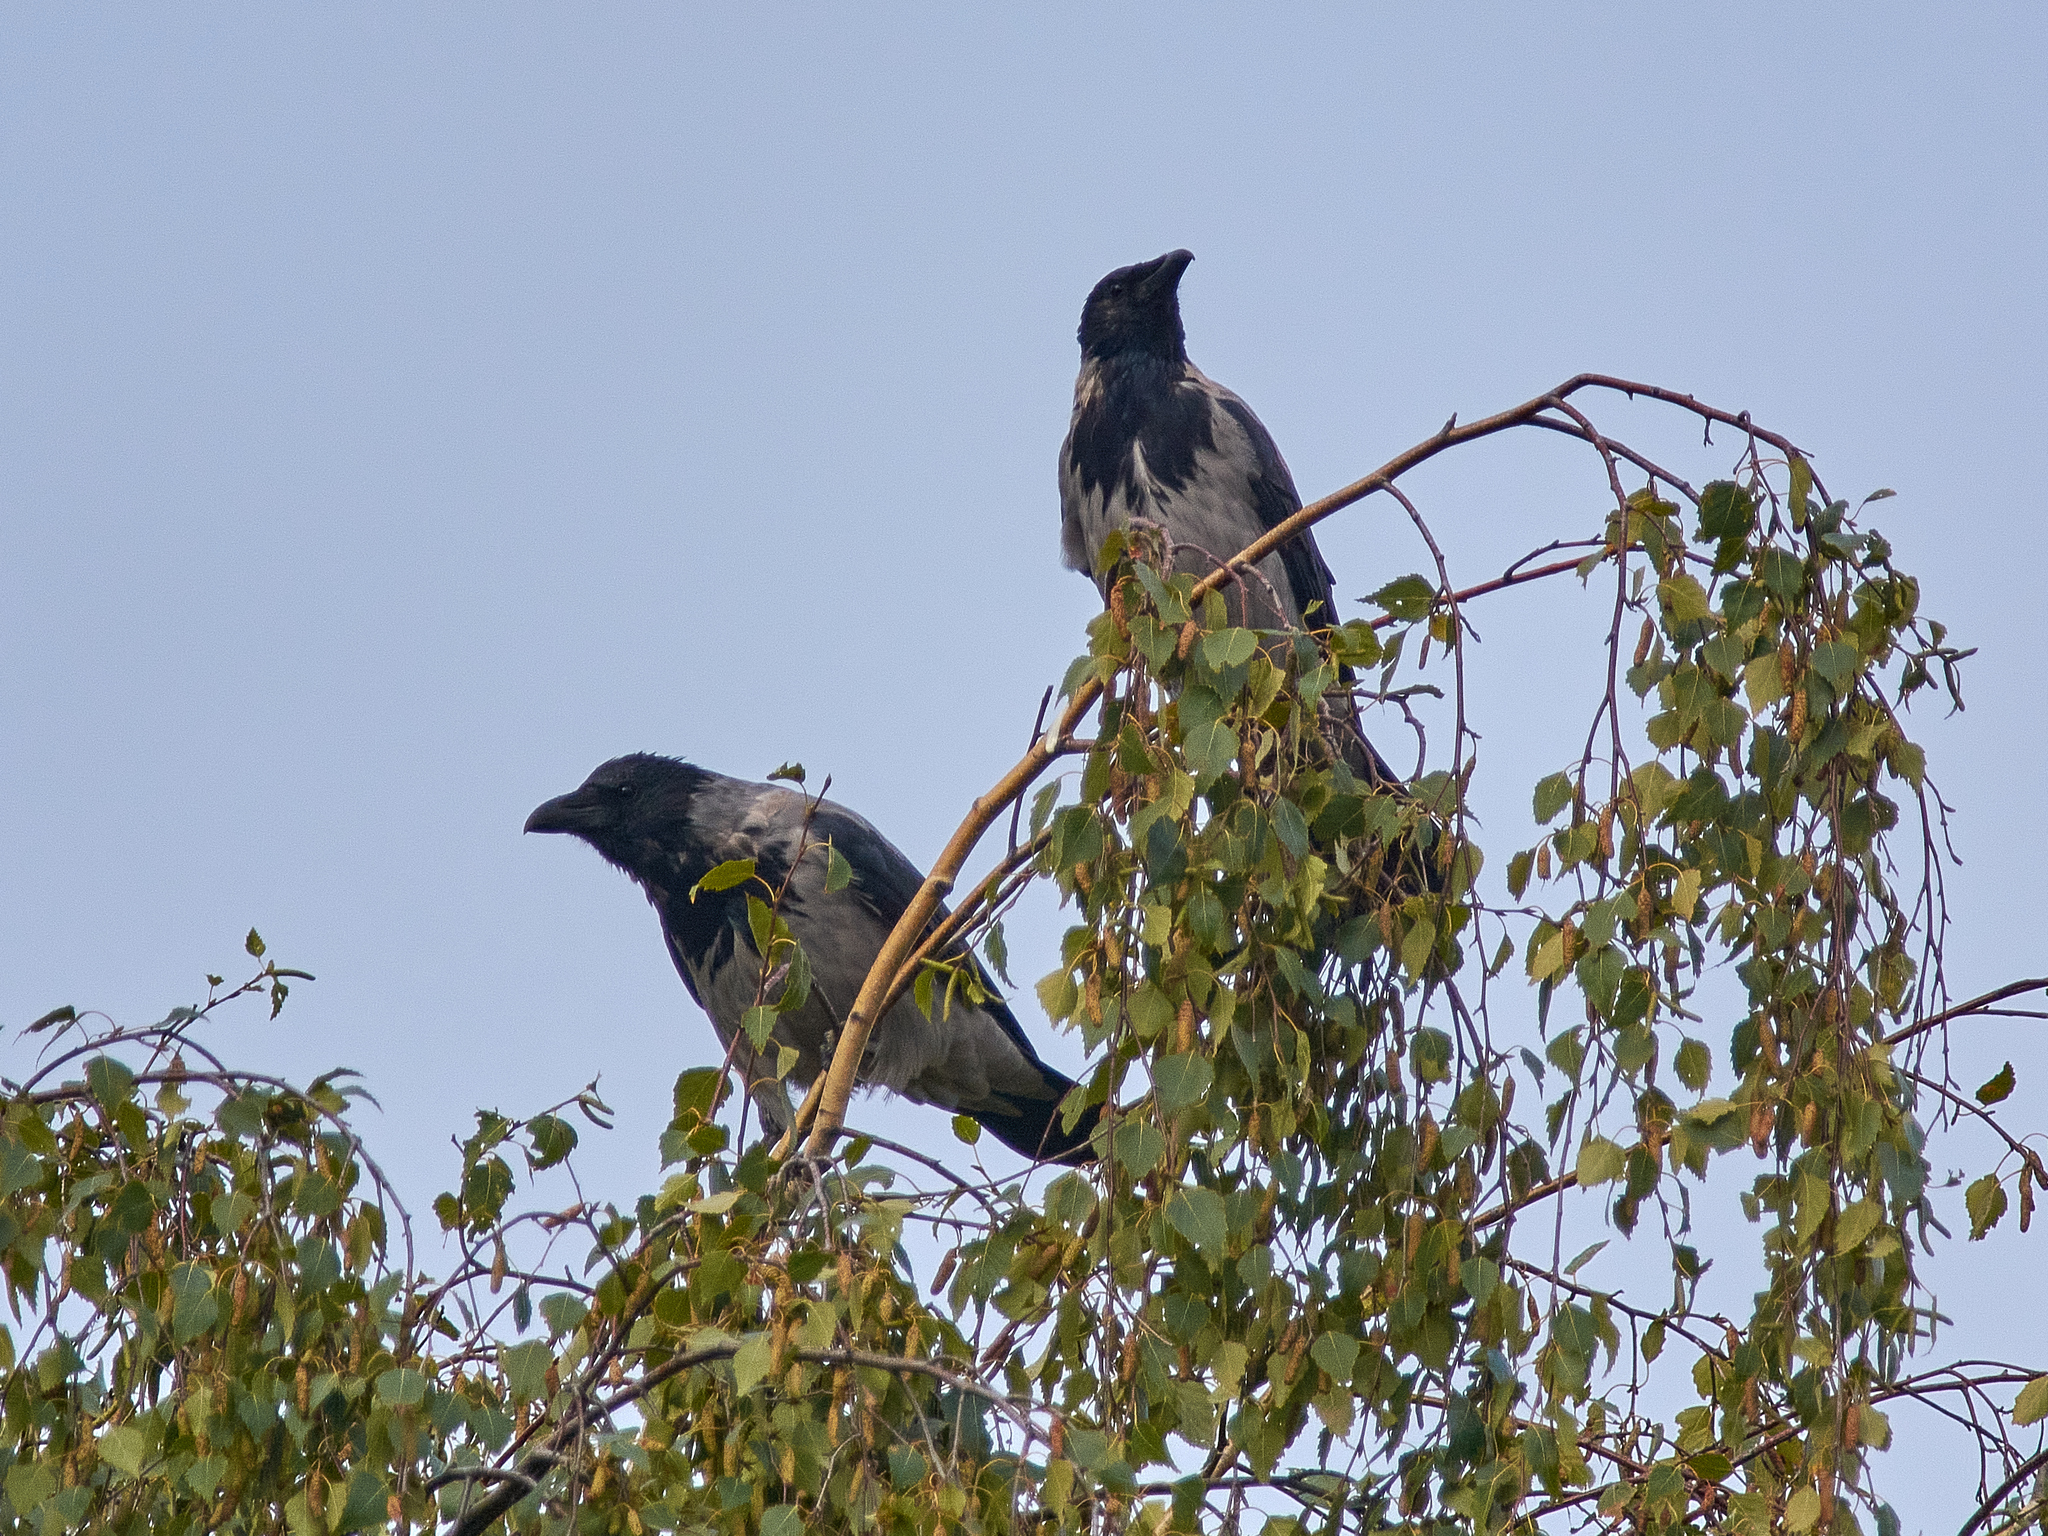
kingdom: Animalia
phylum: Chordata
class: Aves
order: Passeriformes
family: Corvidae
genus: Corvus
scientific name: Corvus cornix
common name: Hooded crow
